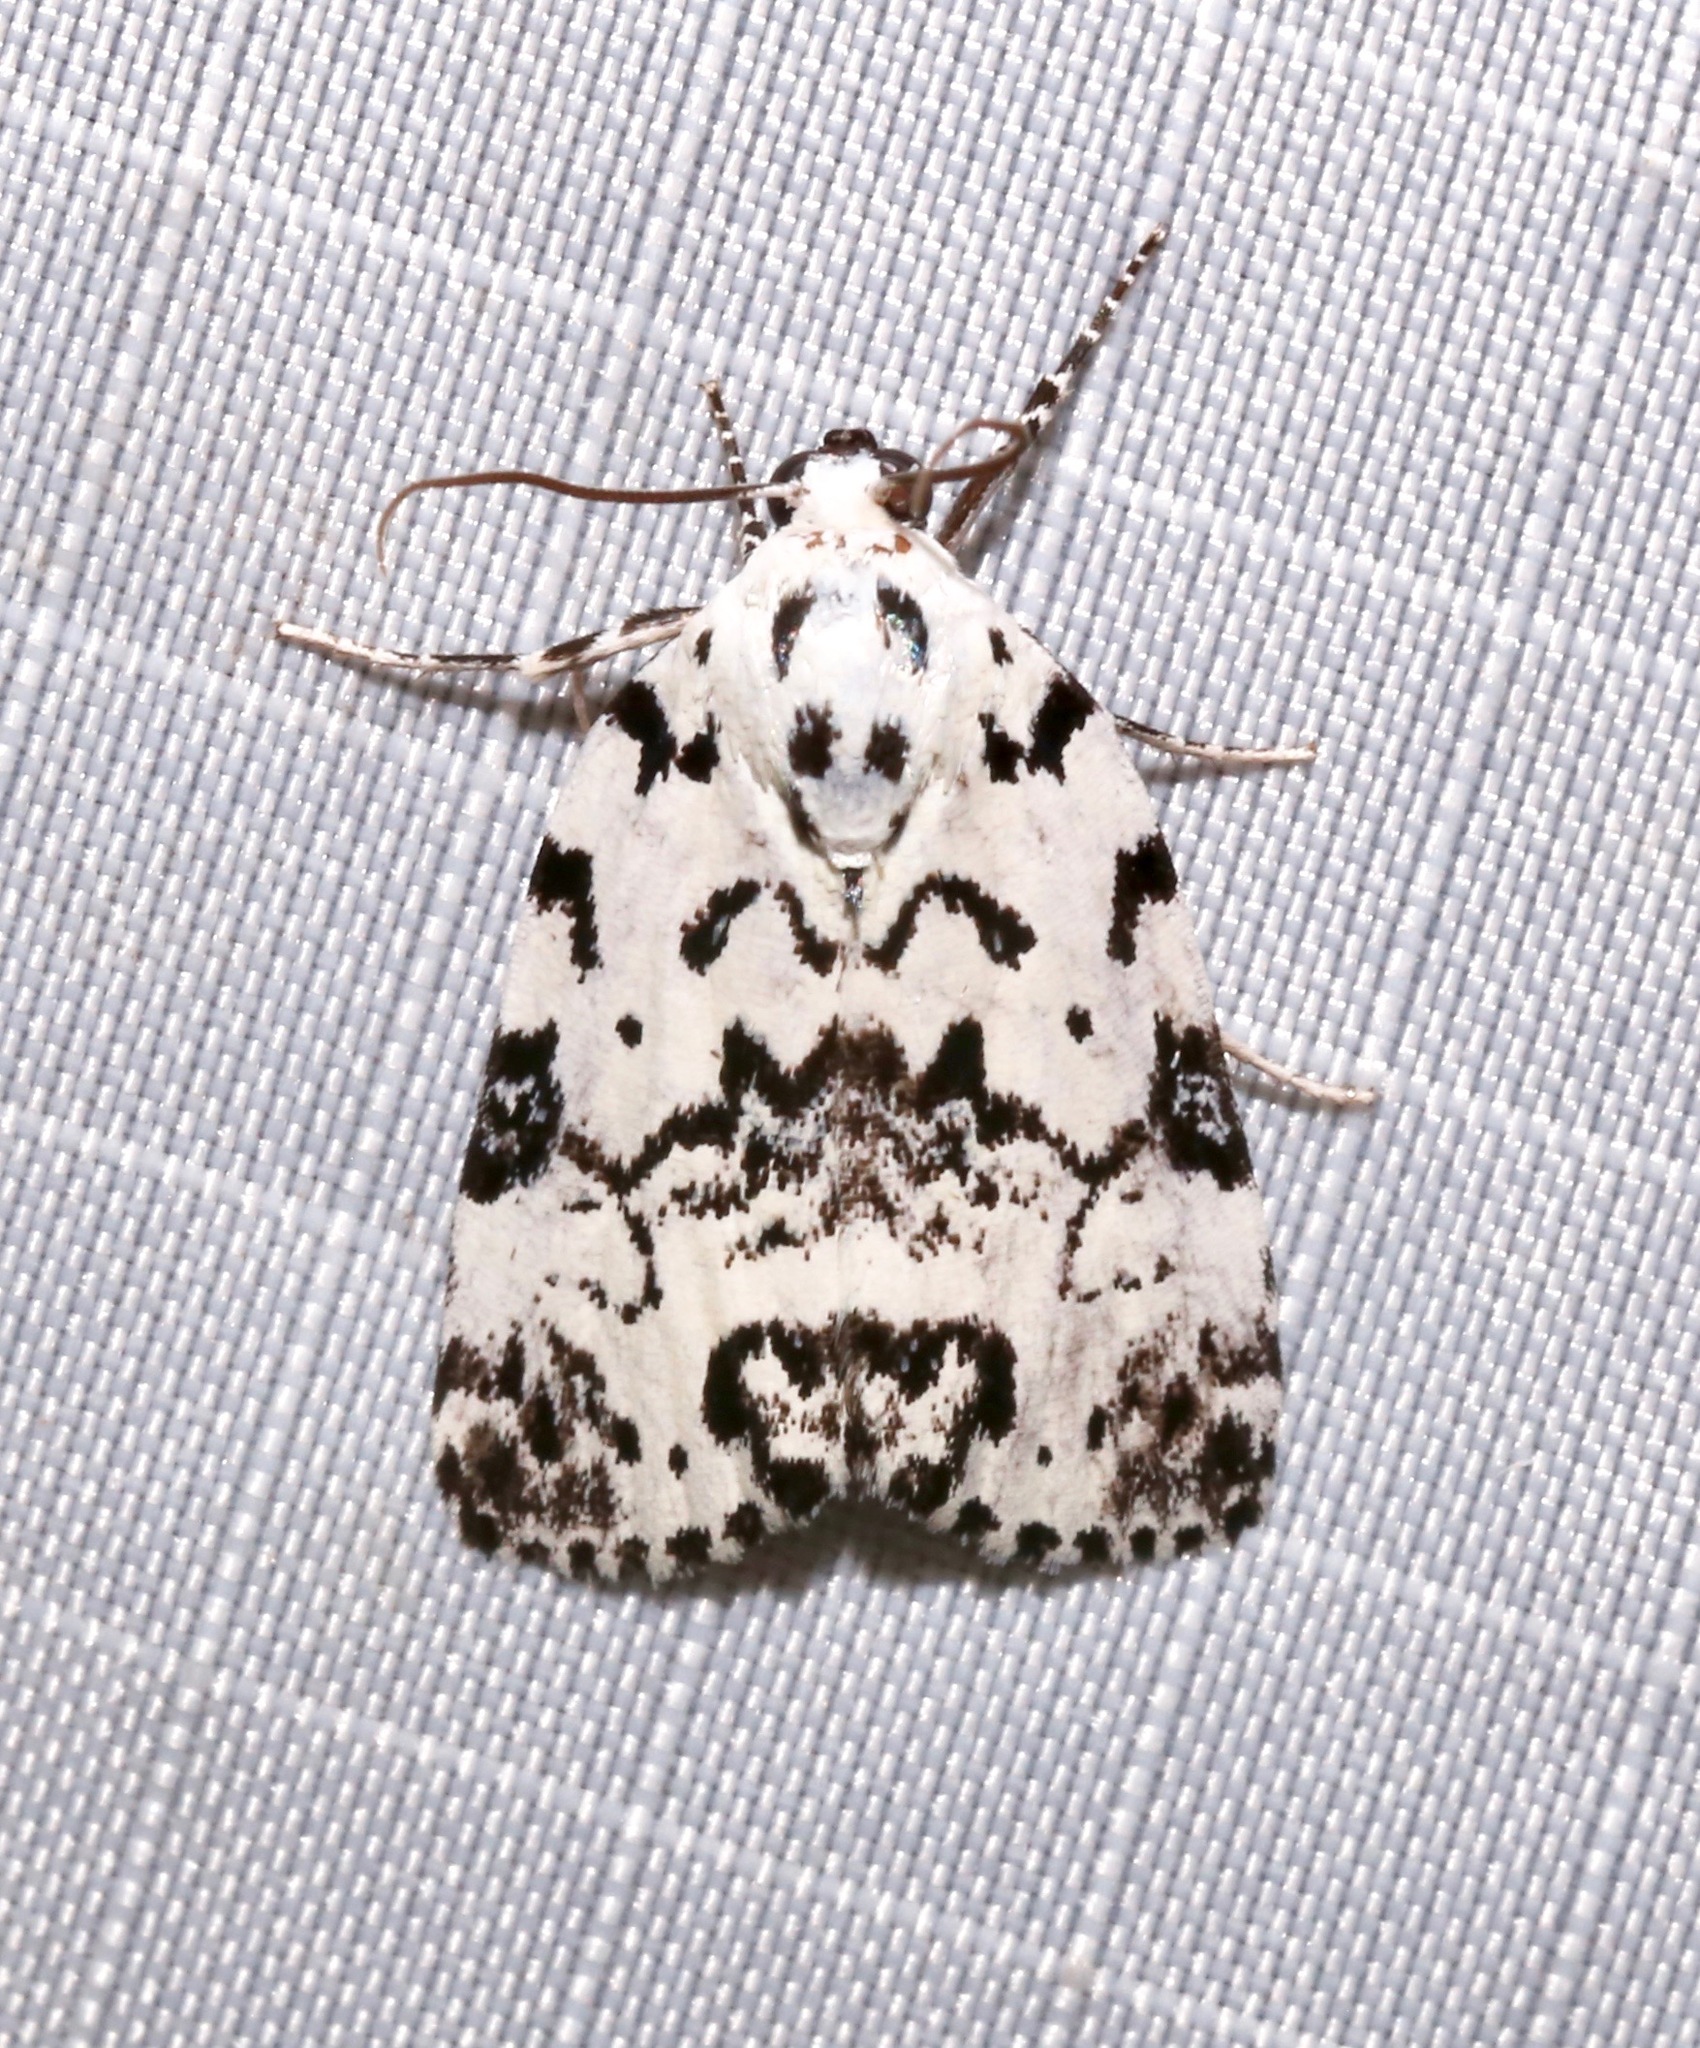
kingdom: Animalia
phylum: Arthropoda
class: Insecta
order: Lepidoptera
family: Noctuidae
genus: Polygrammate
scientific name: Polygrammate hebraeicum
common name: Hebrew moth
